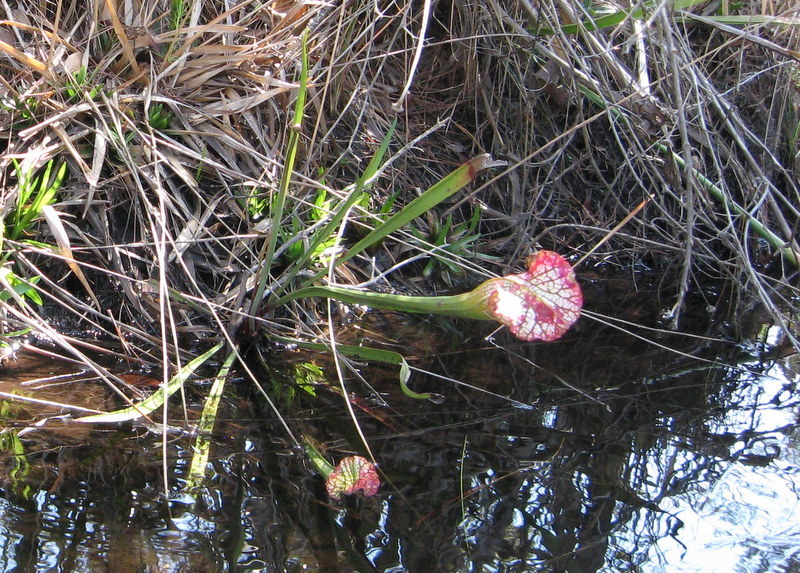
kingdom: Plantae
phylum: Tracheophyta
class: Magnoliopsida
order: Ericales
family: Sarraceniaceae
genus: Sarracenia
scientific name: Sarracenia leucophylla
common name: Purple trumpetleaf
